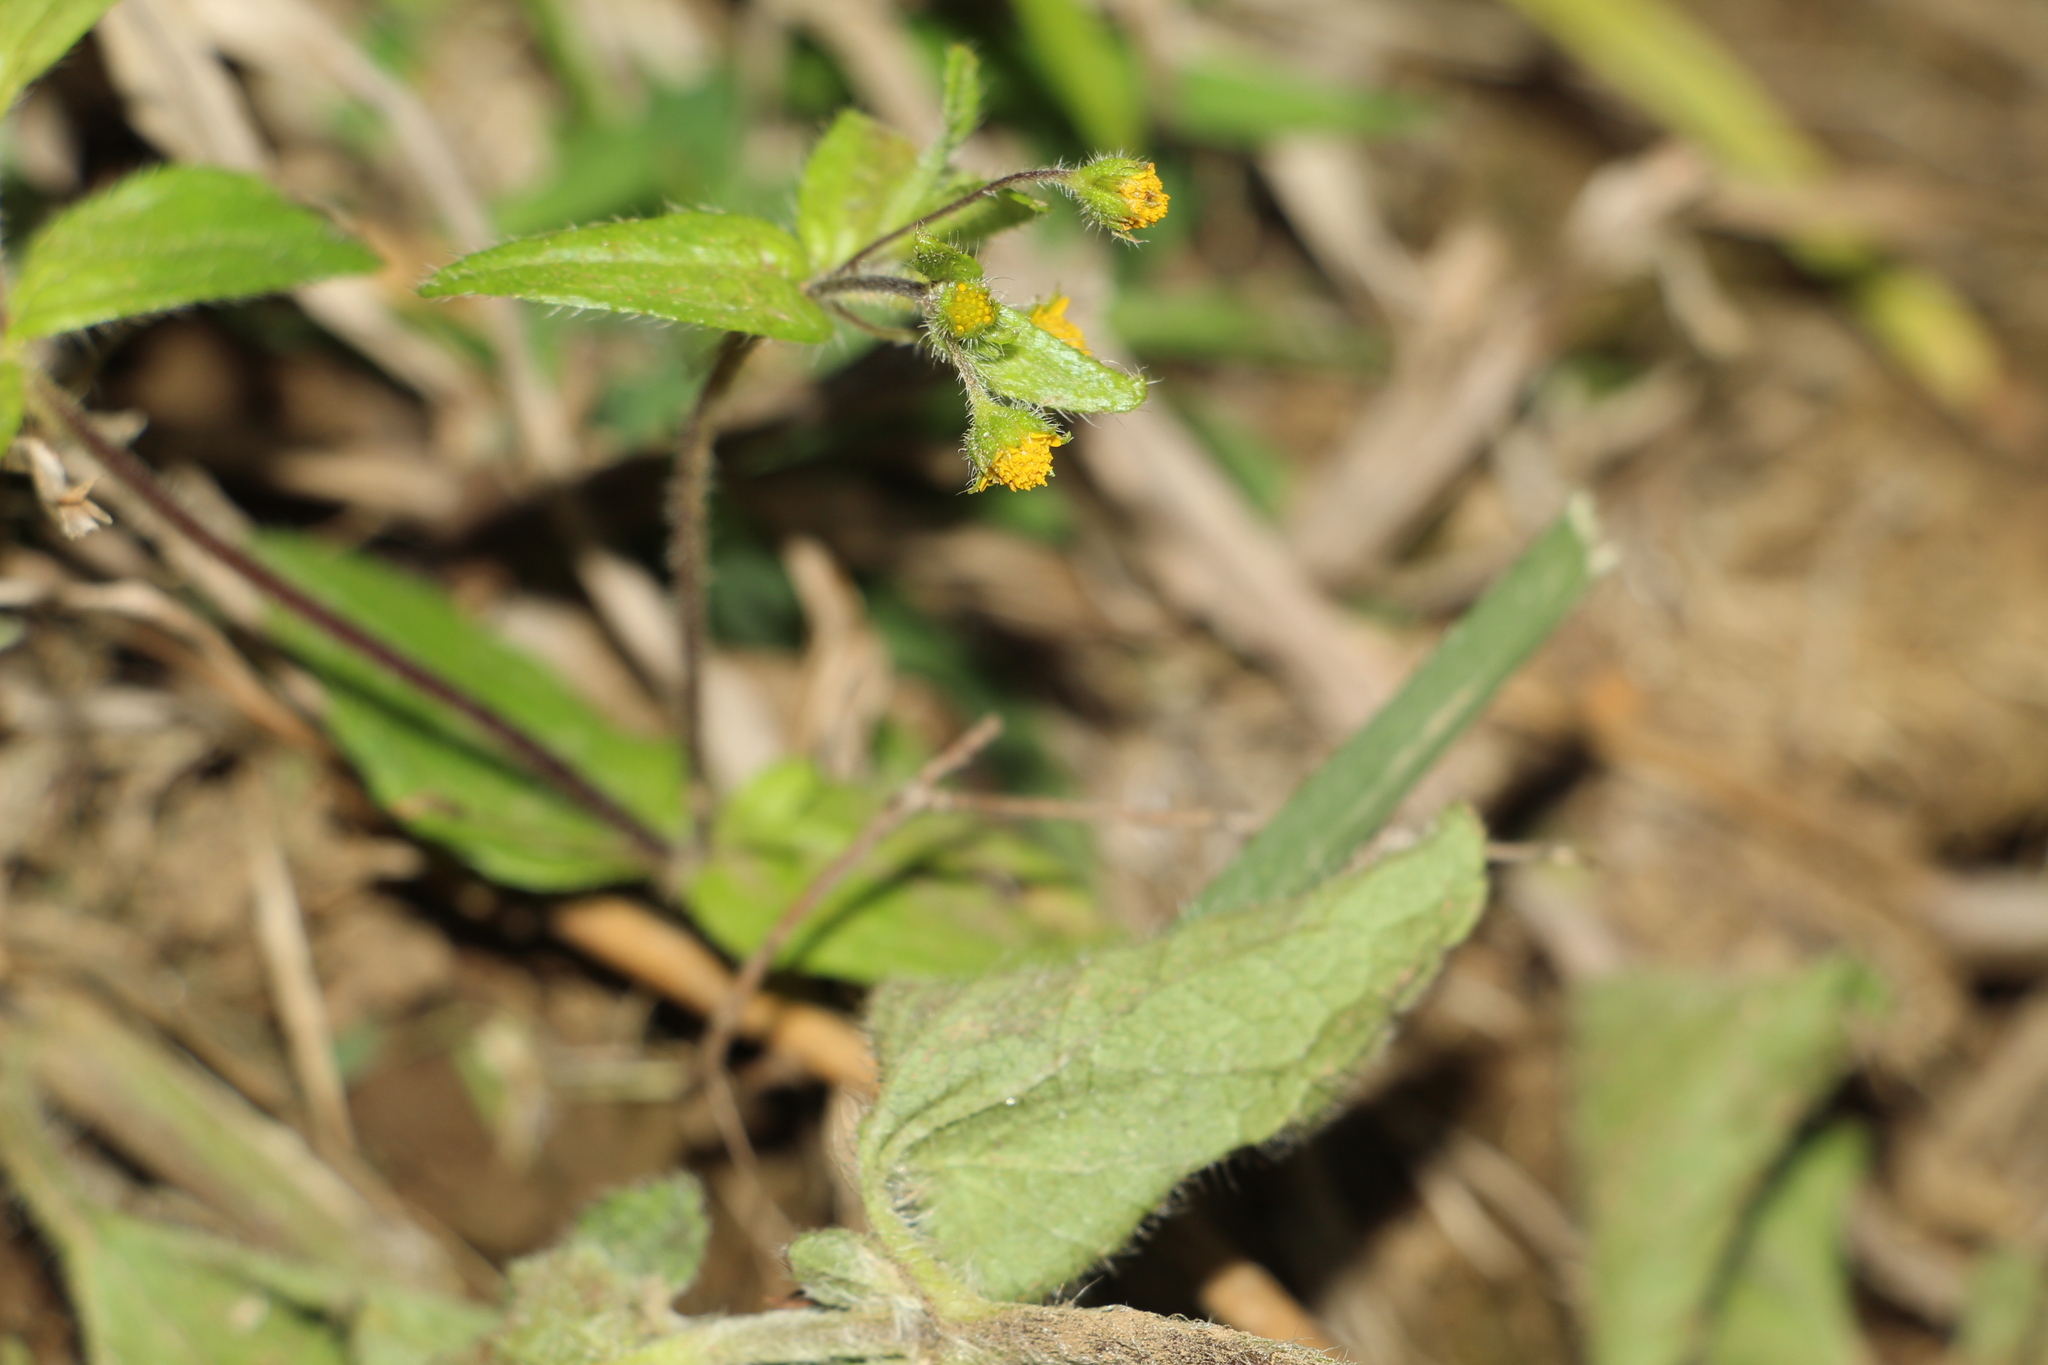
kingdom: Plantae
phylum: Tracheophyta
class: Magnoliopsida
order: Asterales
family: Asteraceae
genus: Jaegeria
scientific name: Jaegeria hirta
